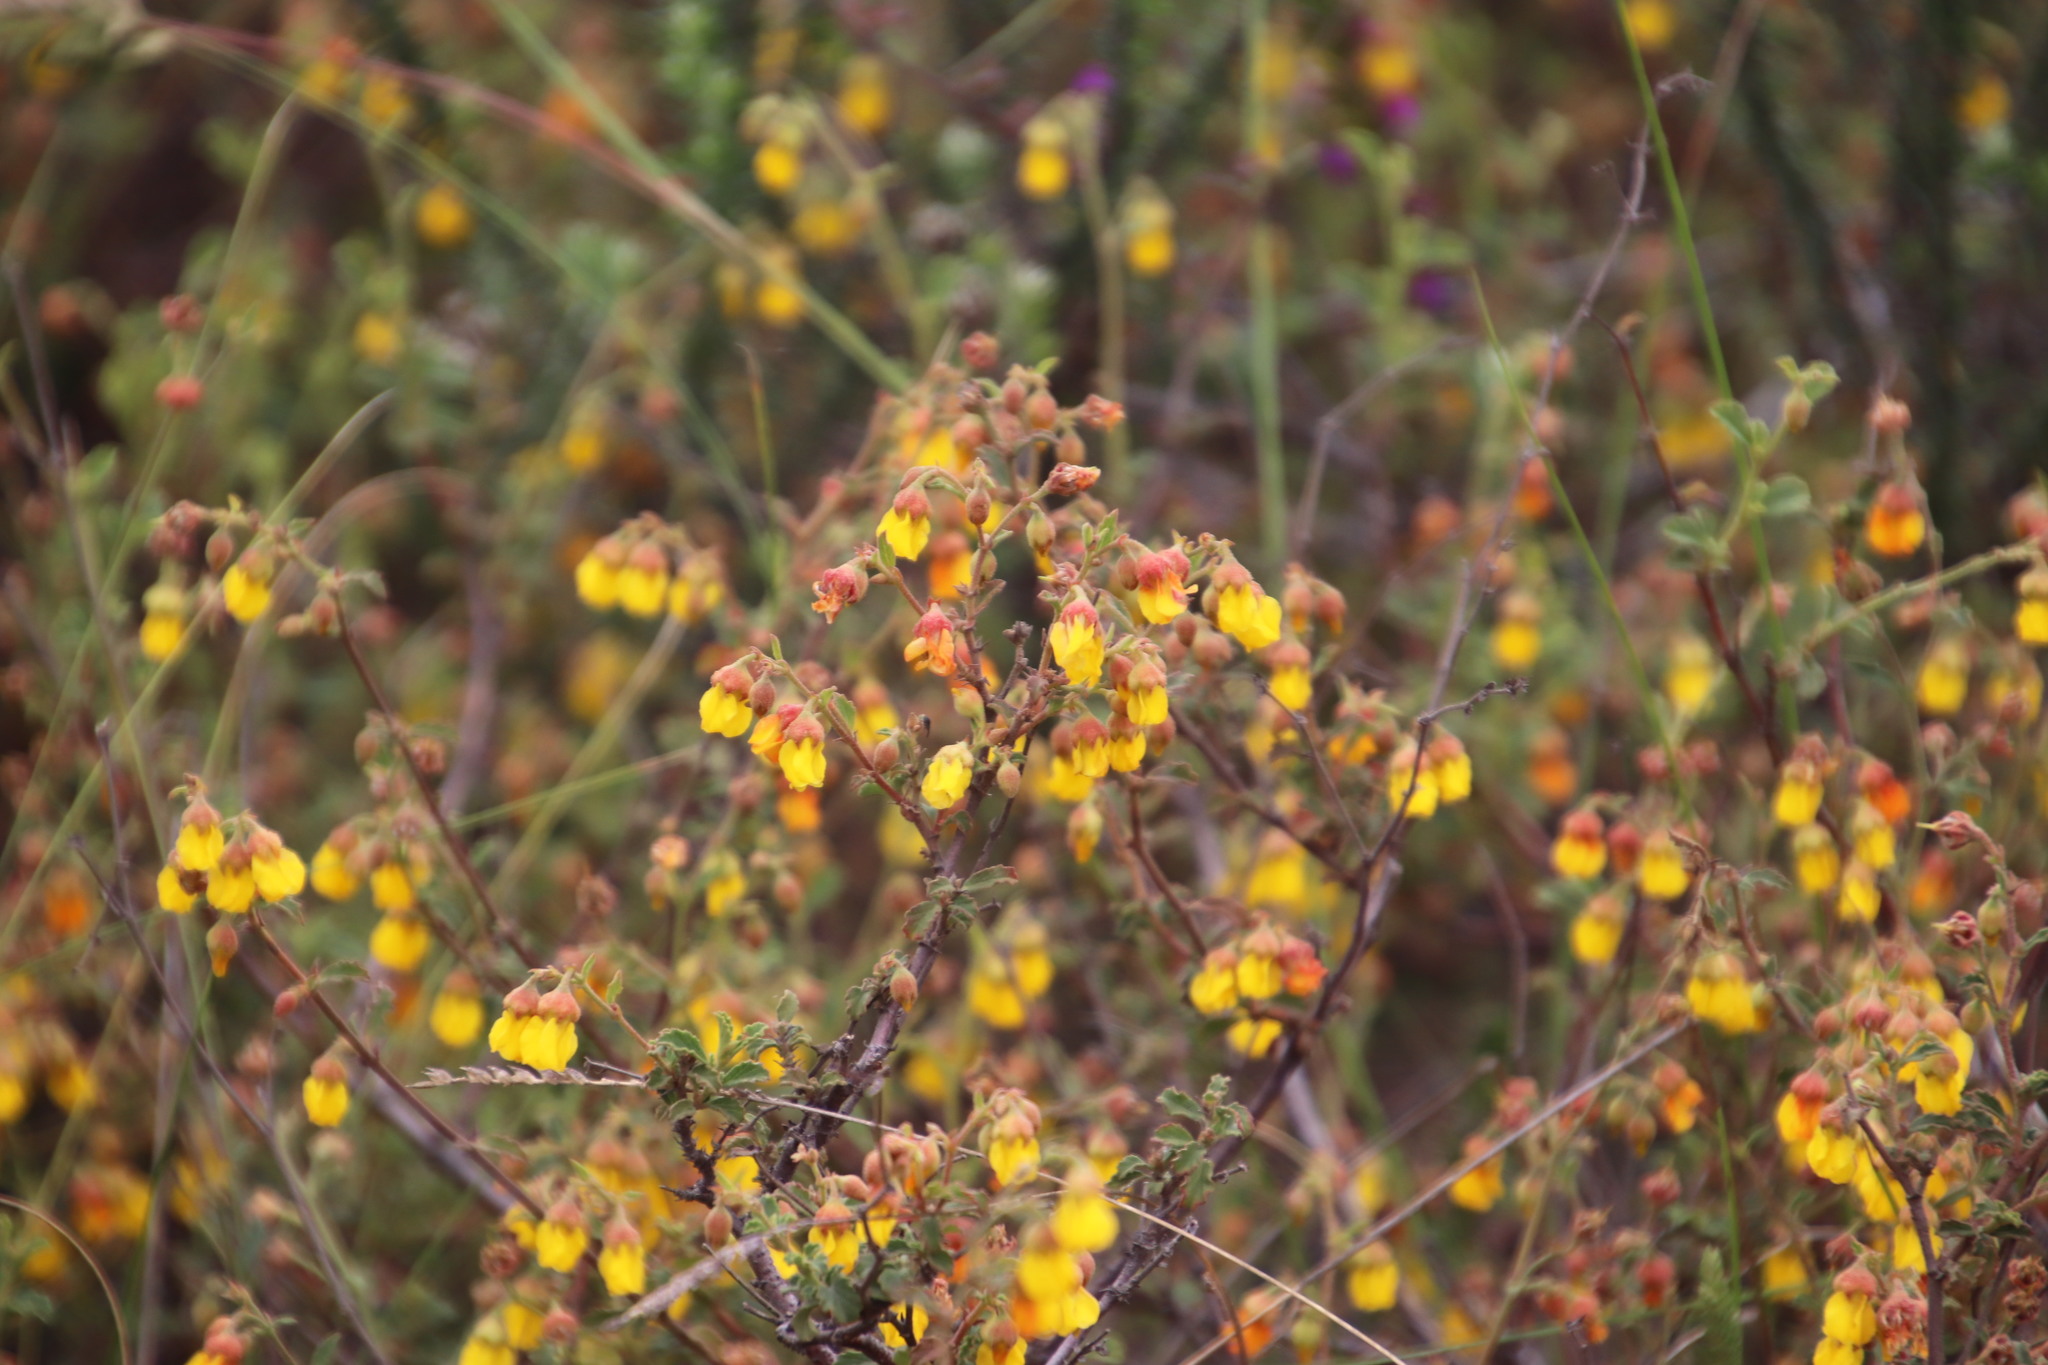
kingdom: Plantae
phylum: Tracheophyta
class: Magnoliopsida
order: Malvales
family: Malvaceae
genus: Hermannia
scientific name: Hermannia multiflora
